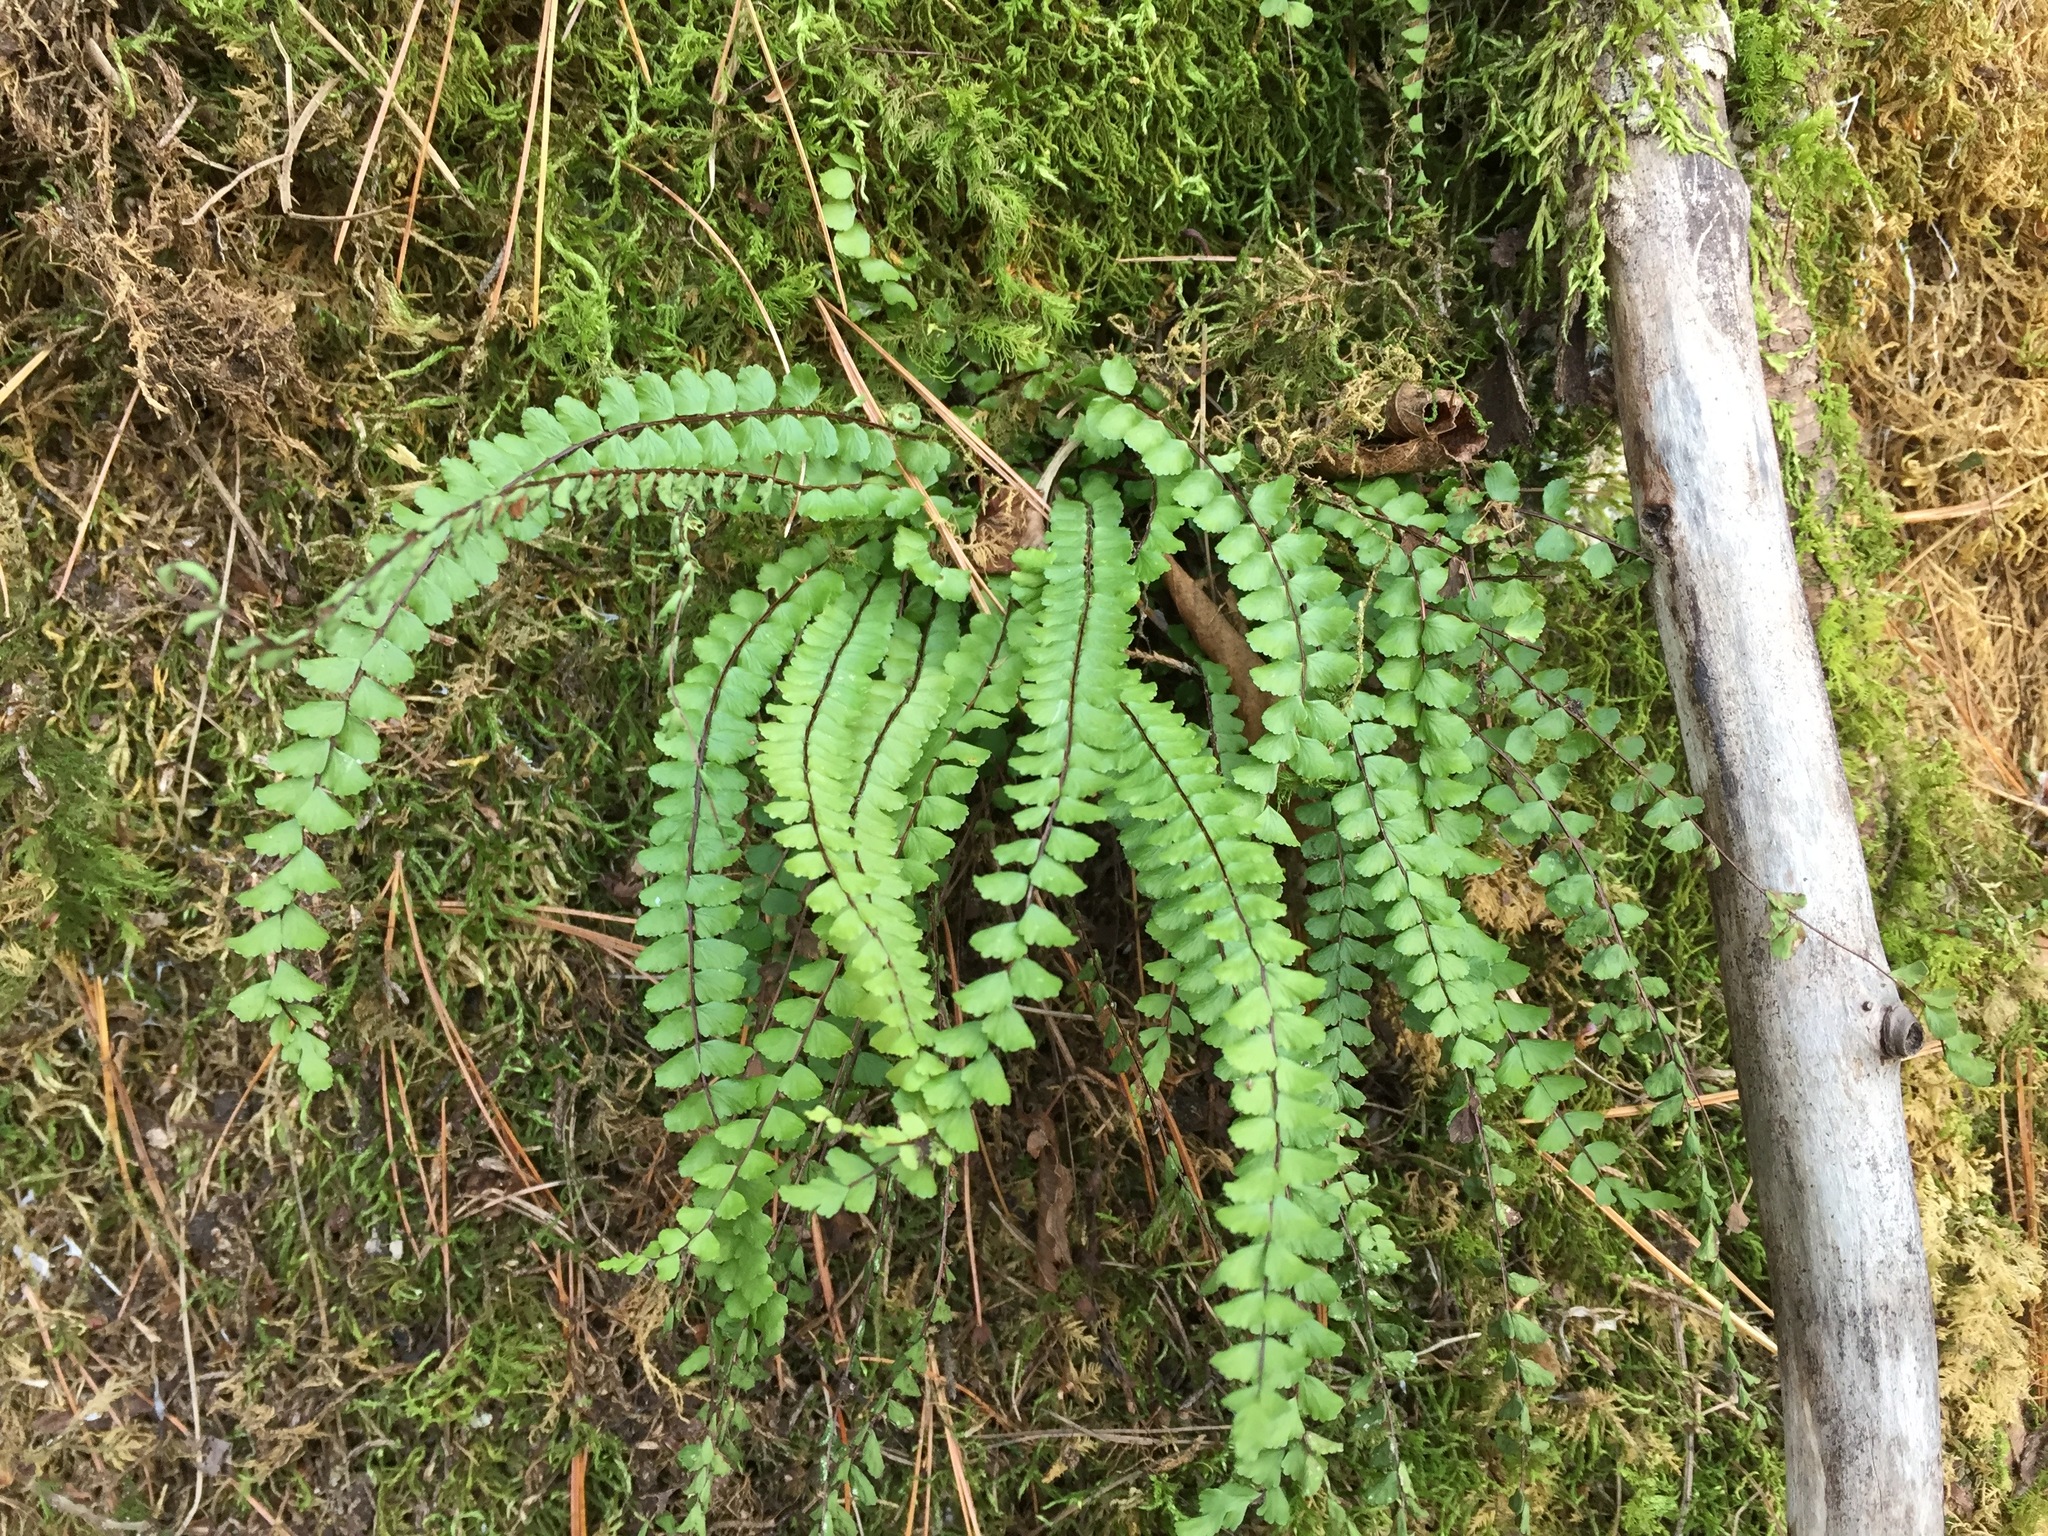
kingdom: Plantae
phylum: Tracheophyta
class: Polypodiopsida
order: Polypodiales
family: Aspleniaceae
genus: Asplenium
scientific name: Asplenium trichomanes
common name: Maidenhair spleenwort
